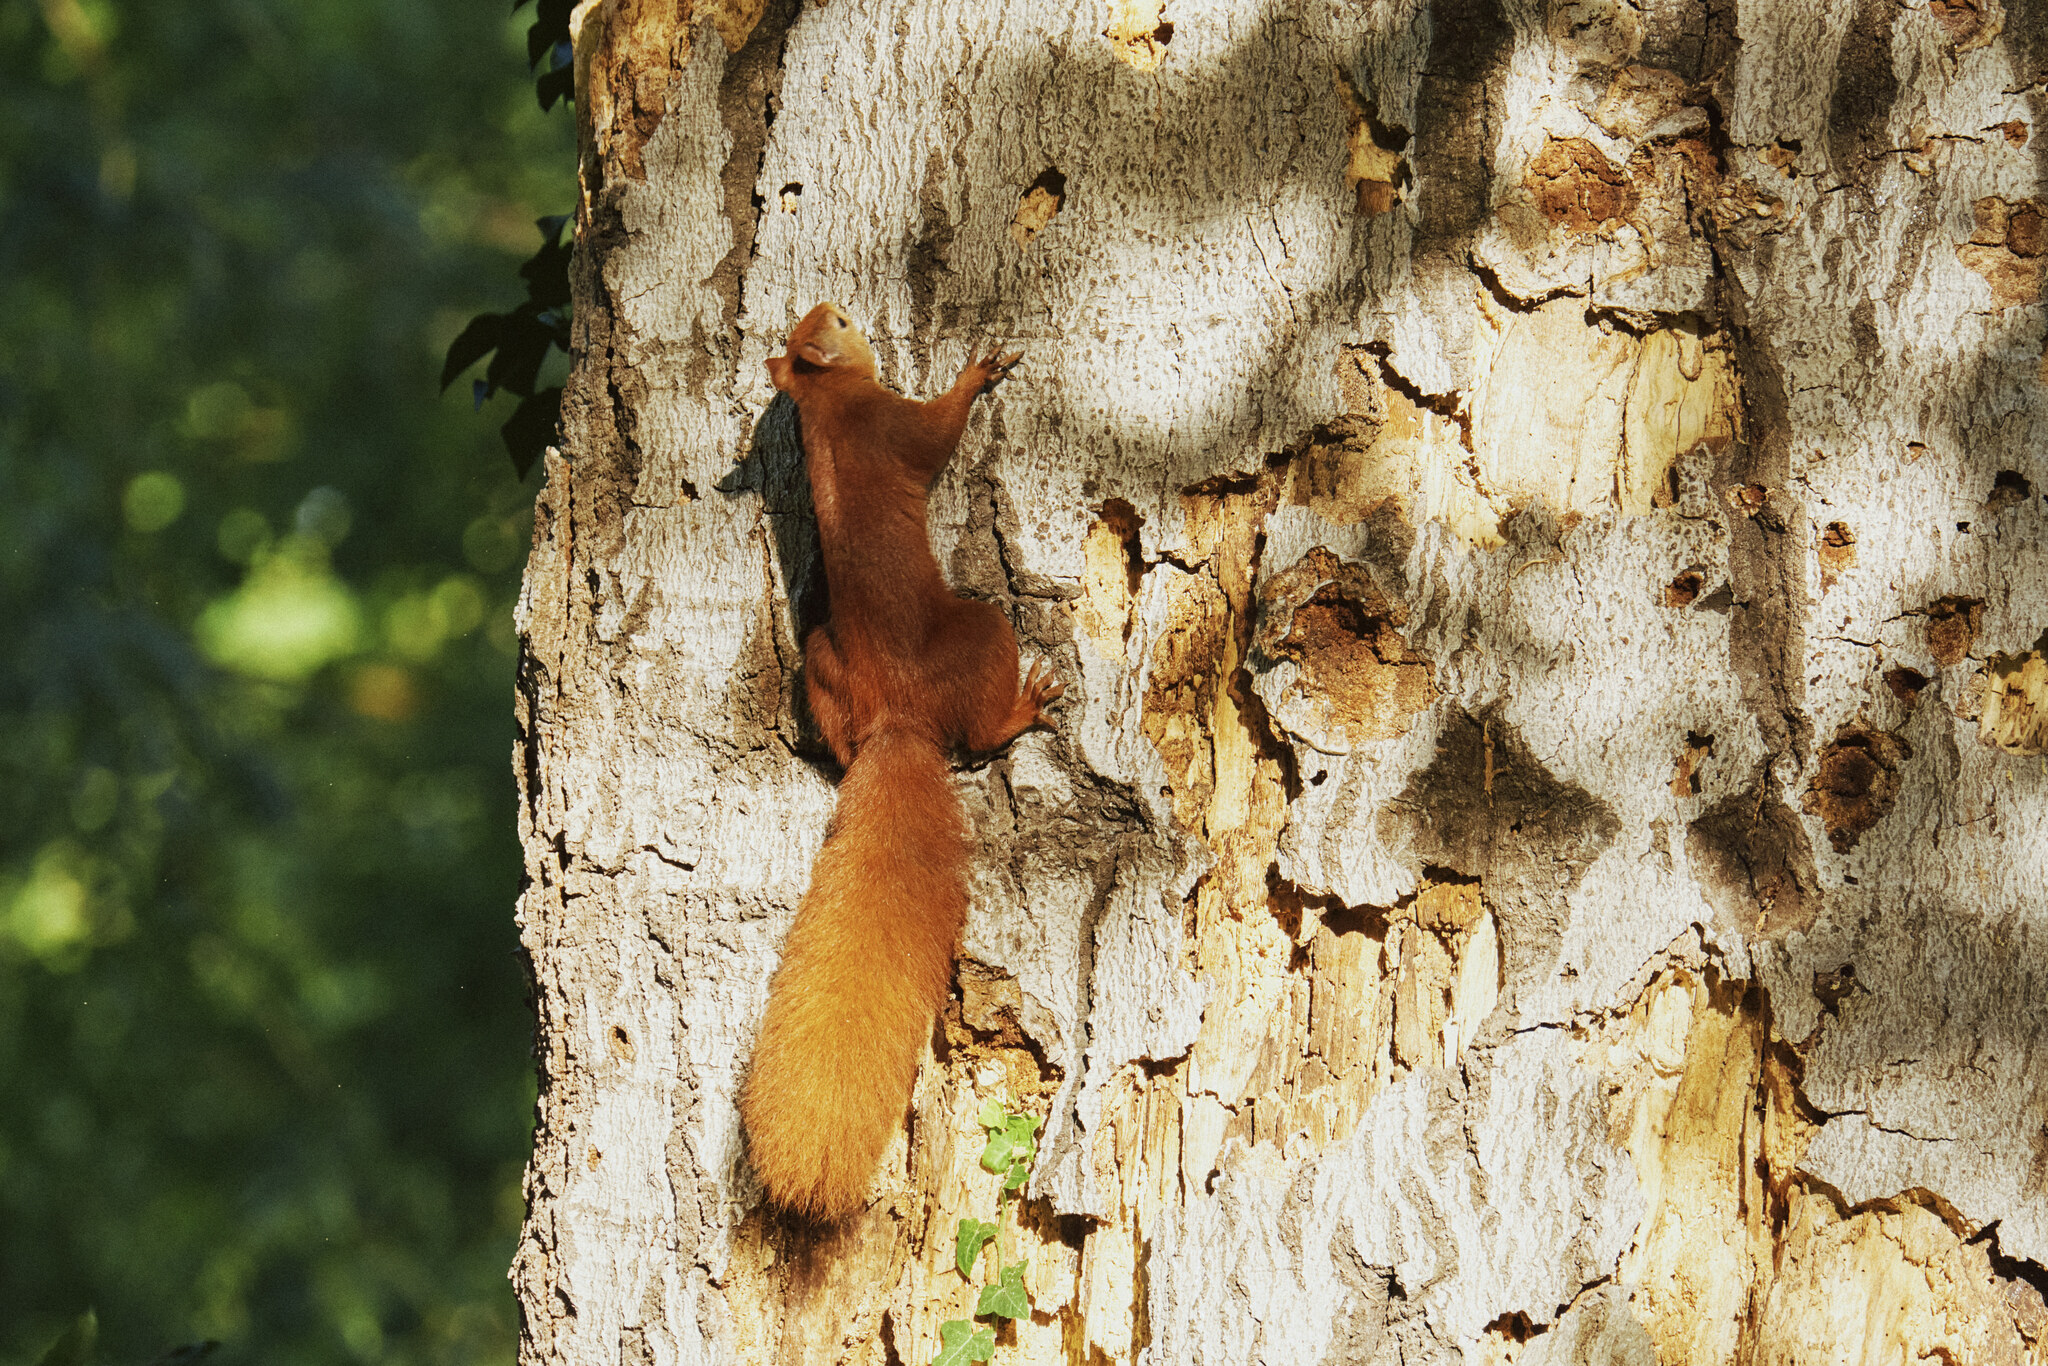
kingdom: Animalia
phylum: Chordata
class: Mammalia
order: Rodentia
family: Sciuridae
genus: Sciurus
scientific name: Sciurus vulgaris
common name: Eurasian red squirrel
